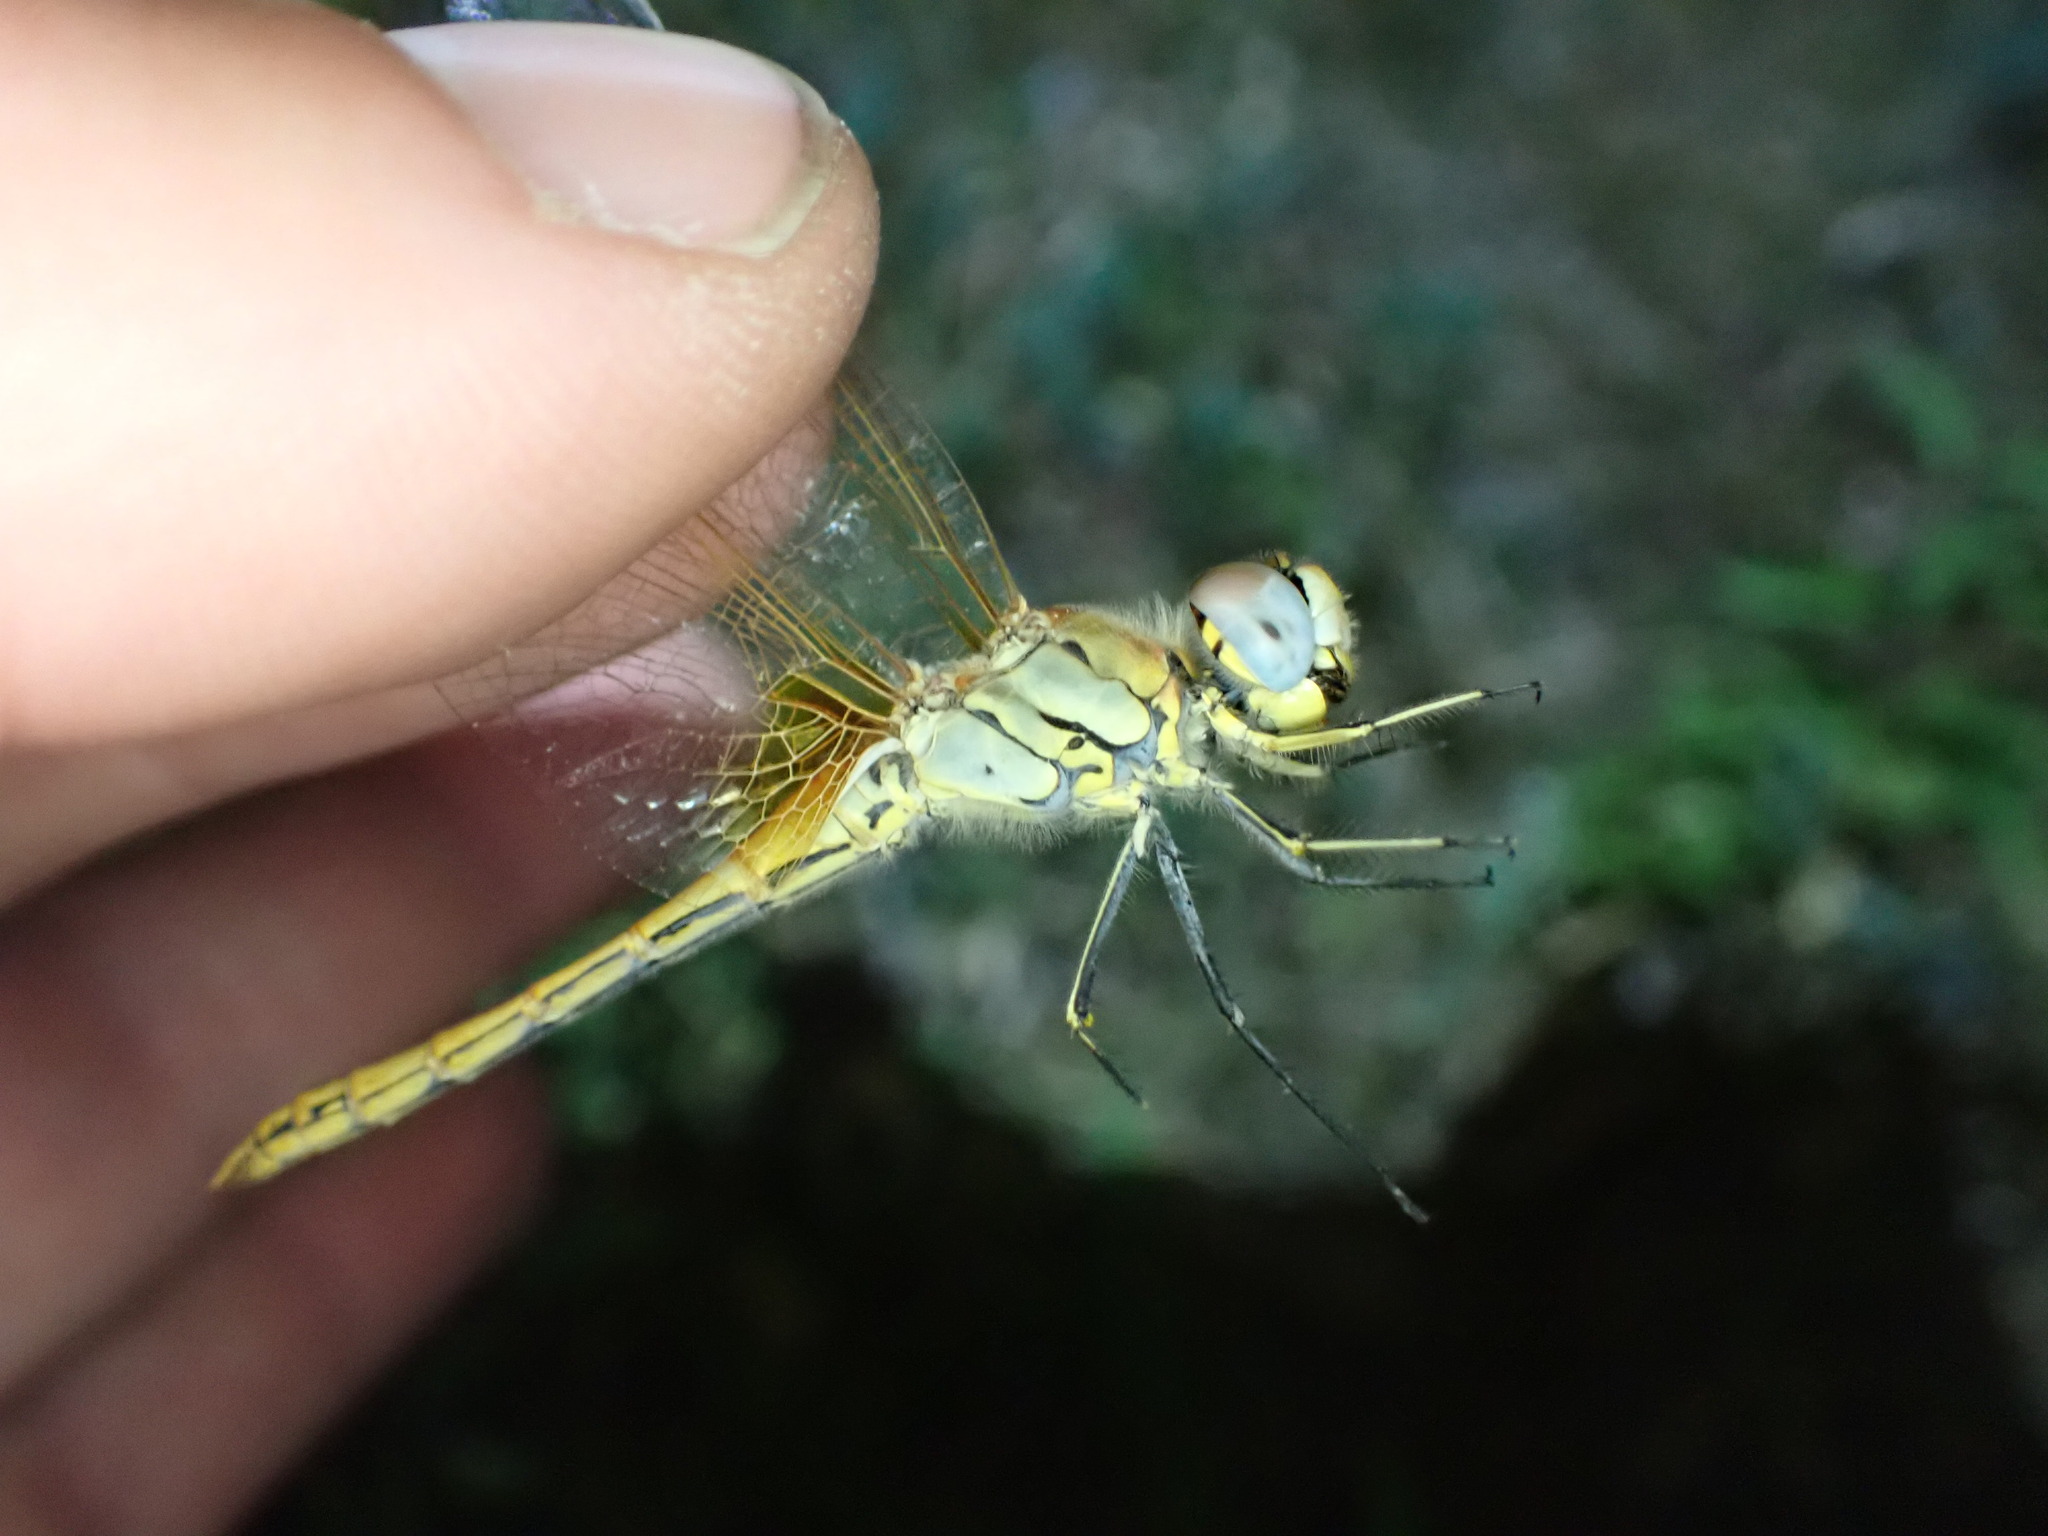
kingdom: Animalia
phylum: Arthropoda
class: Insecta
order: Odonata
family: Libellulidae
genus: Sympetrum
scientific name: Sympetrum fonscolombii
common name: Red-veined darter
